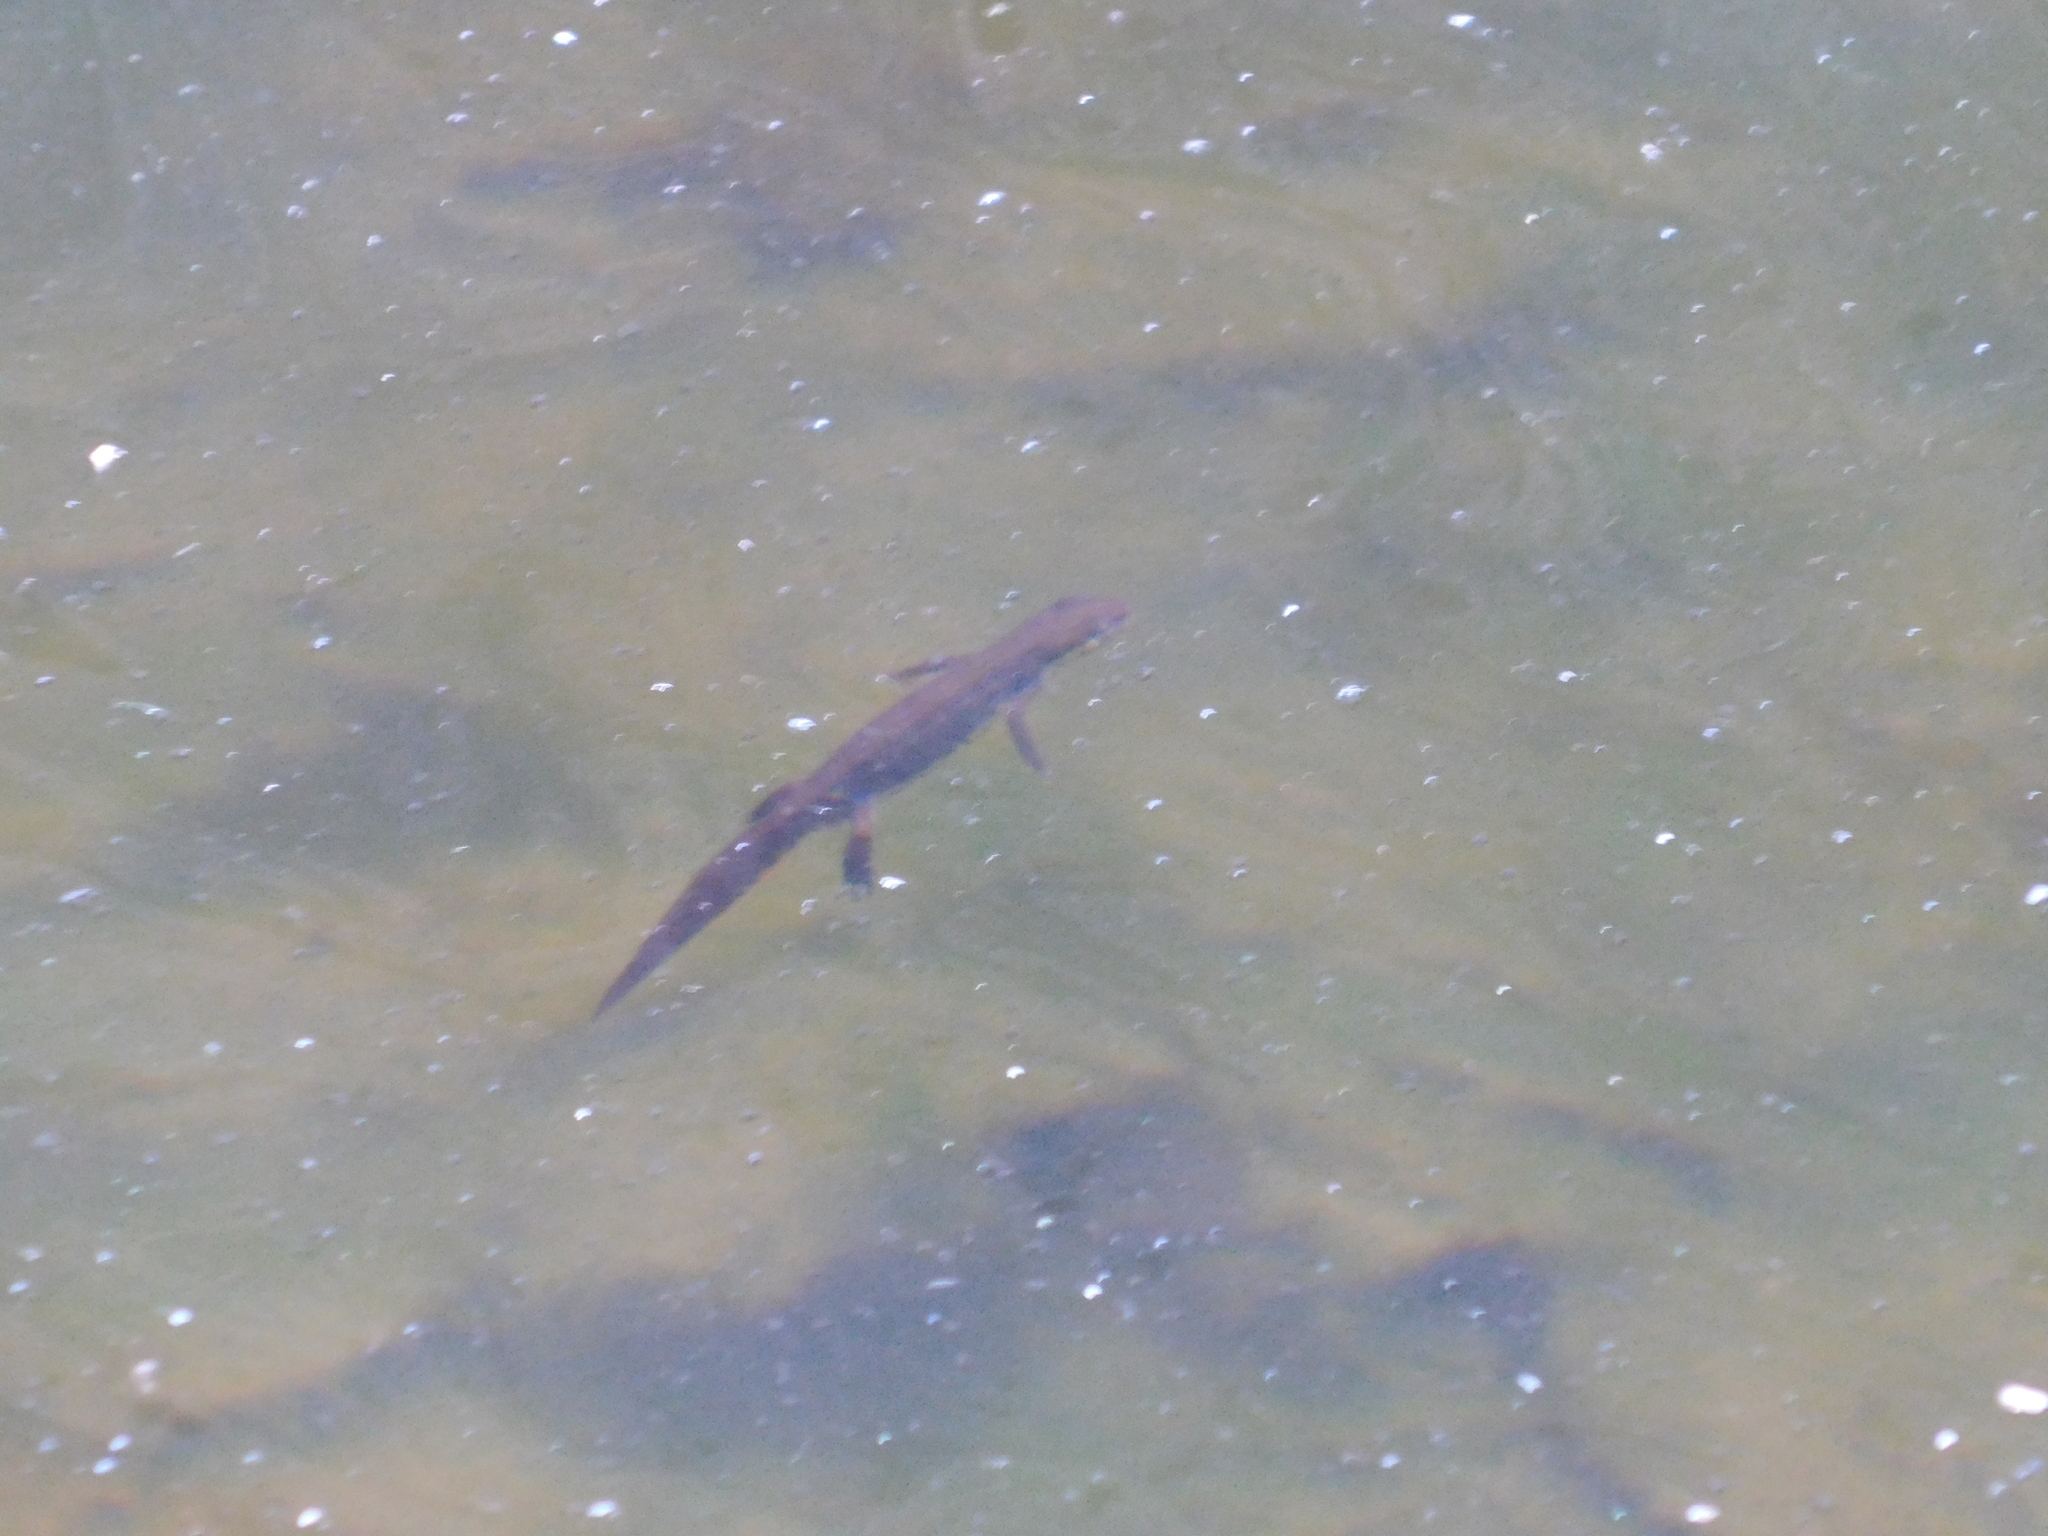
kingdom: Animalia
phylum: Chordata
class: Amphibia
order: Caudata
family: Salamandridae
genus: Lissotriton
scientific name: Lissotriton lantzi
